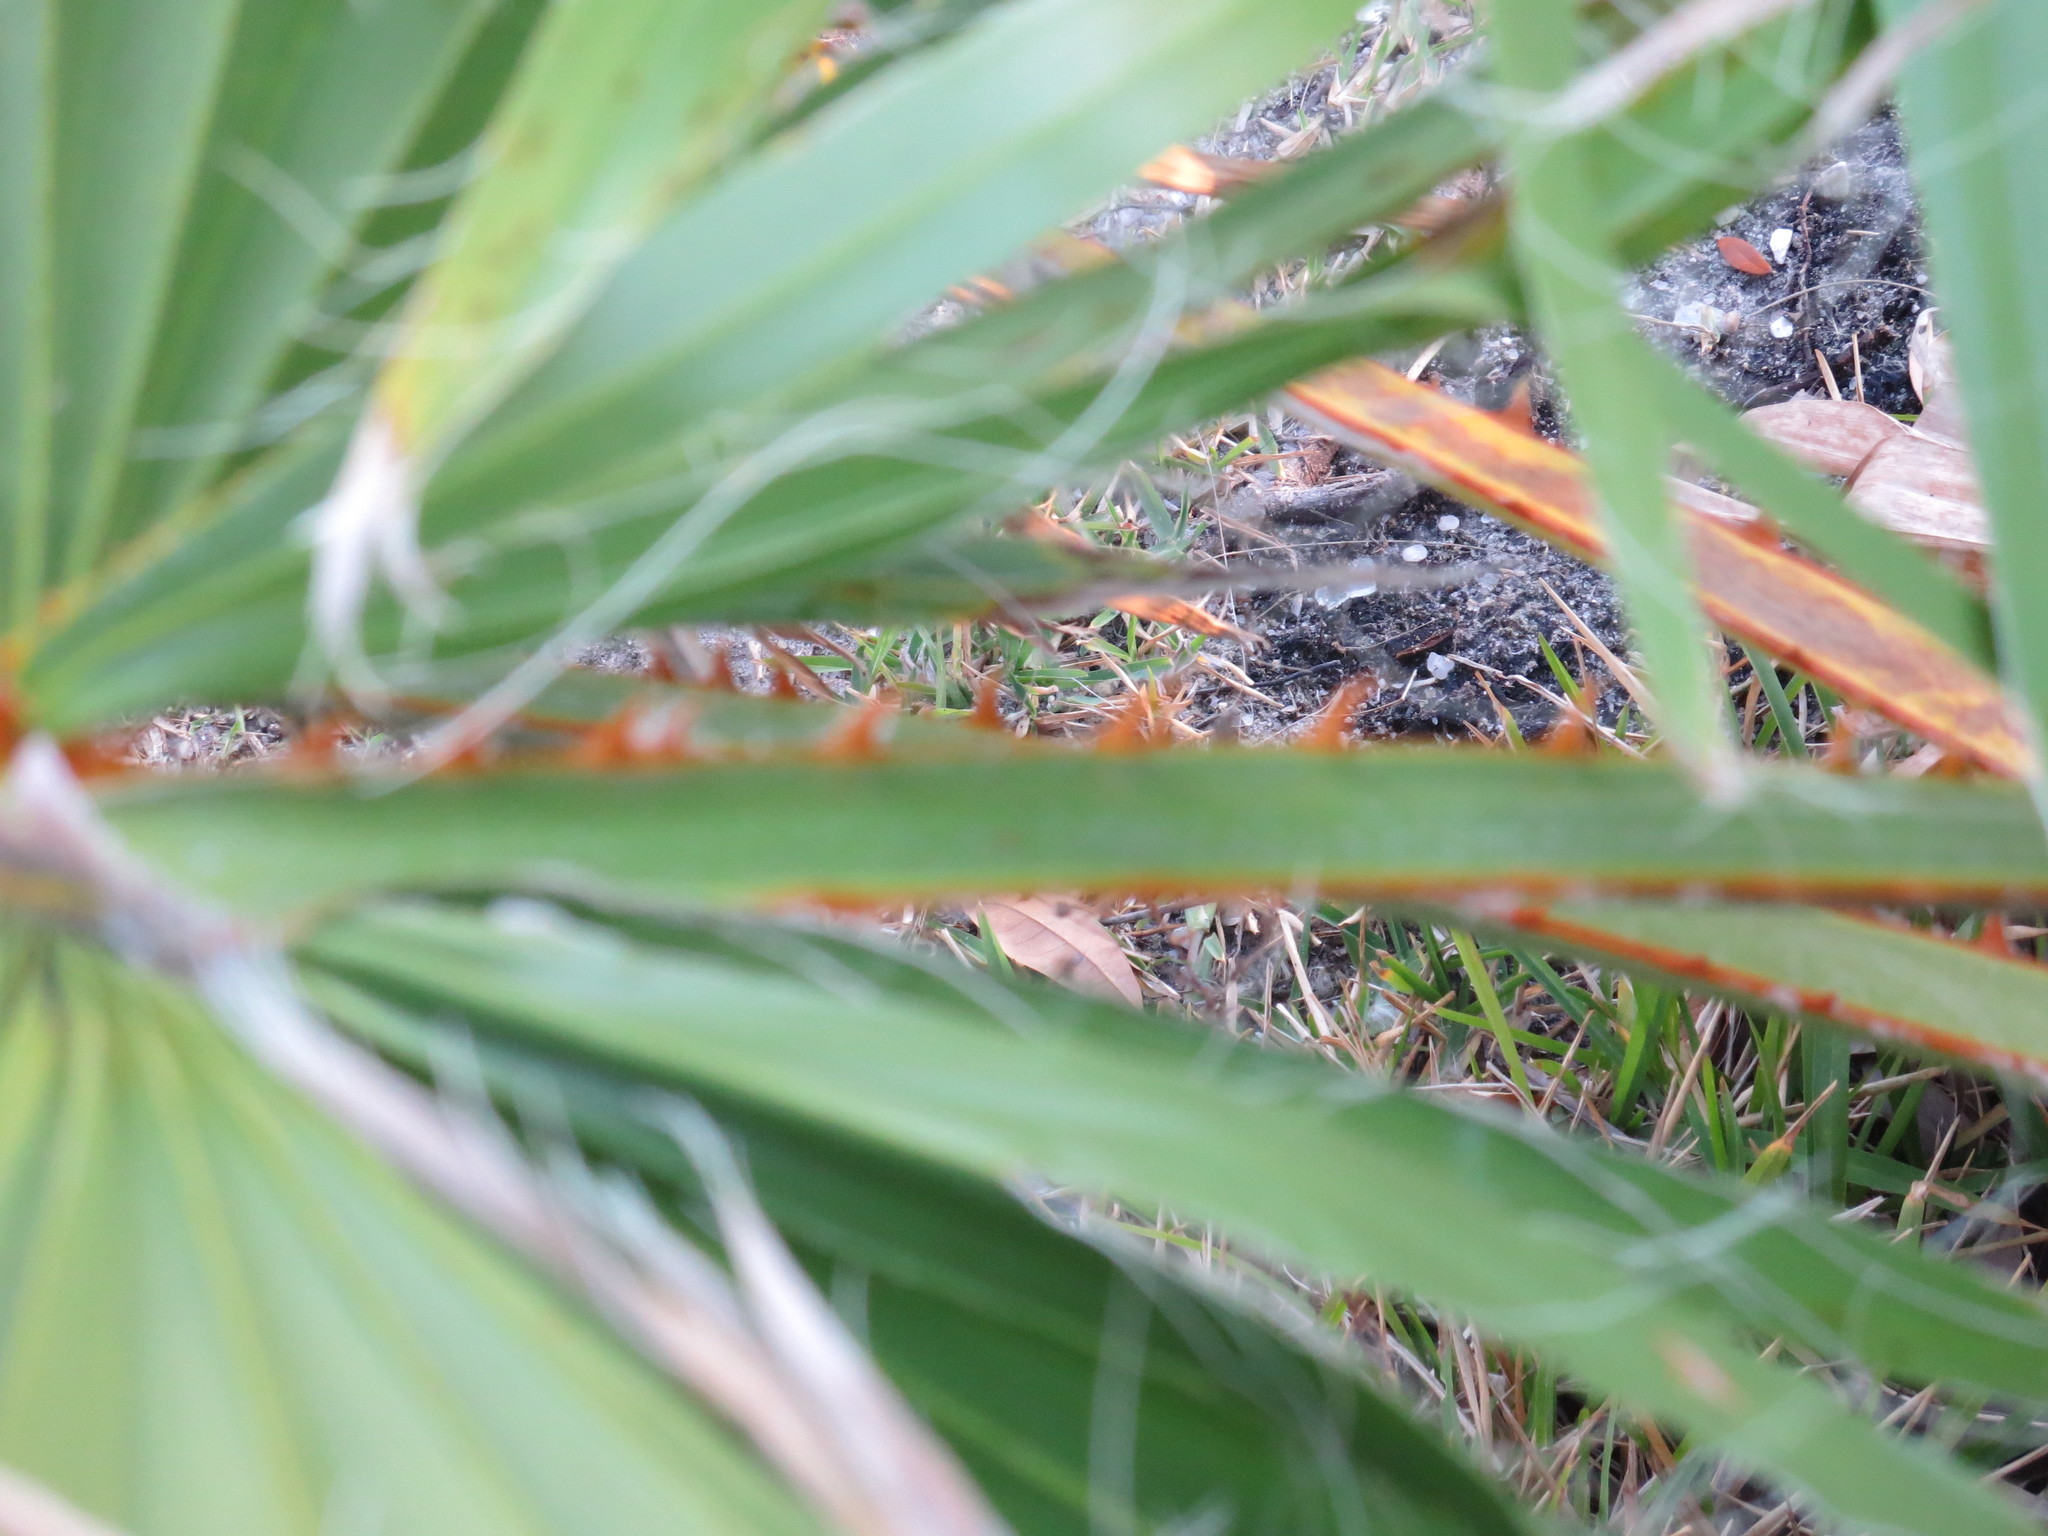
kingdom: Plantae
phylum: Tracheophyta
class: Liliopsida
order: Arecales
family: Arecaceae
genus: Washingtonia
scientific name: Washingtonia robusta
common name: Mexican fan palm
